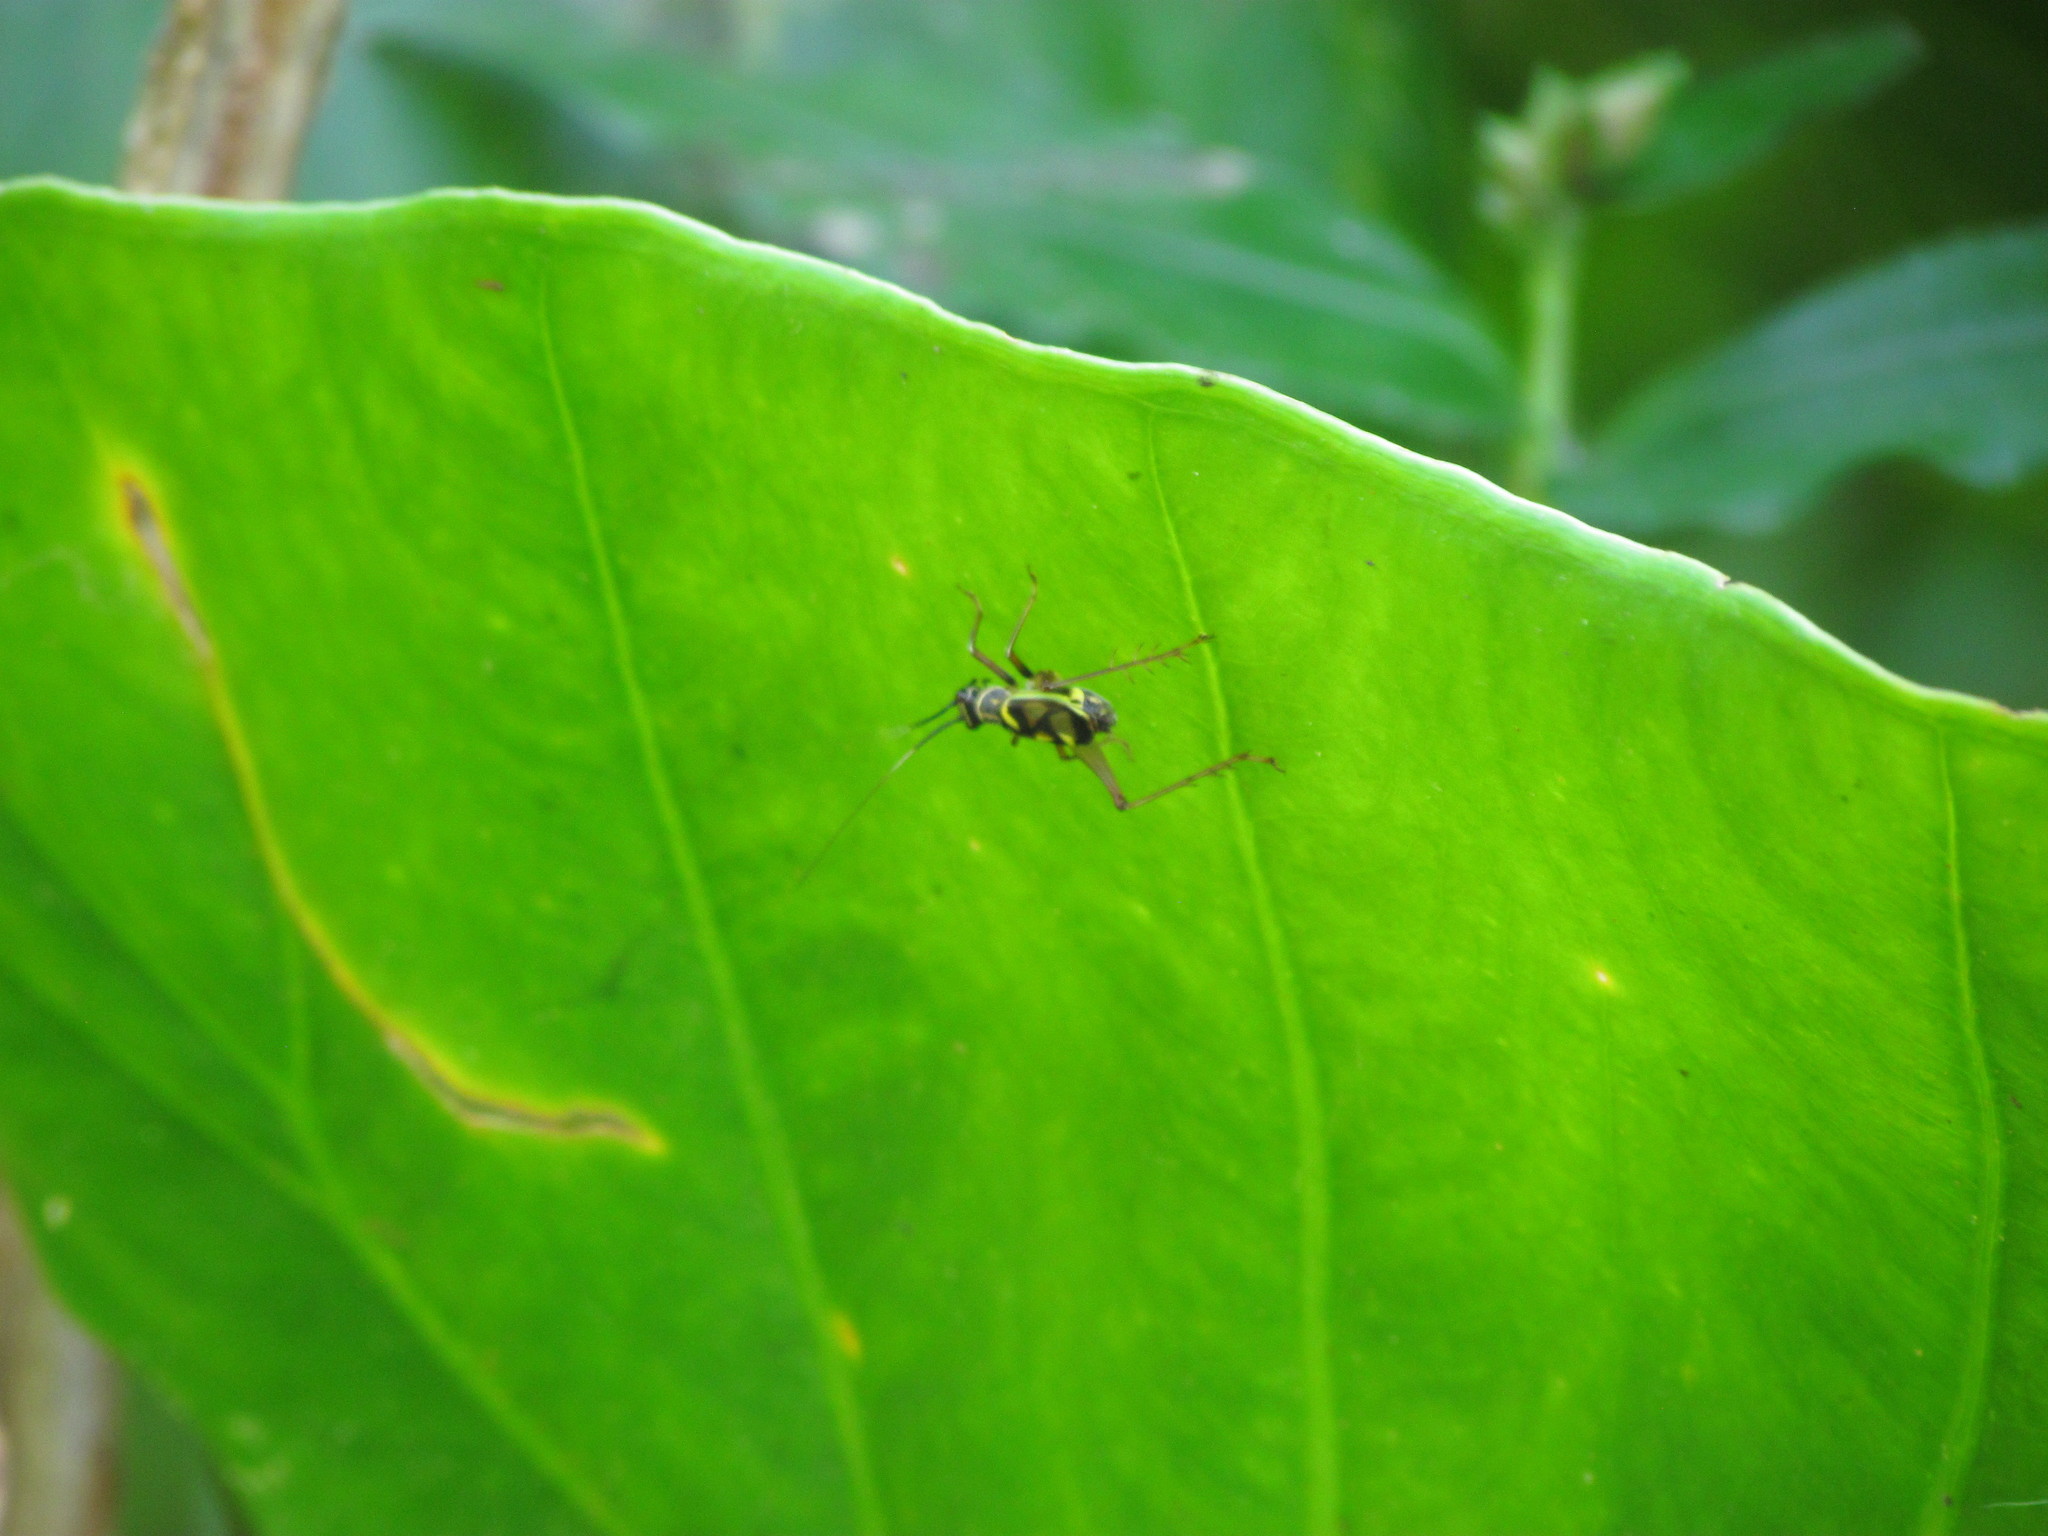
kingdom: Animalia
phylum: Arthropoda
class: Insecta
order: Orthoptera
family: Trigonidiidae
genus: Phylloscyrtus
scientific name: Phylloscyrtus amoenus
